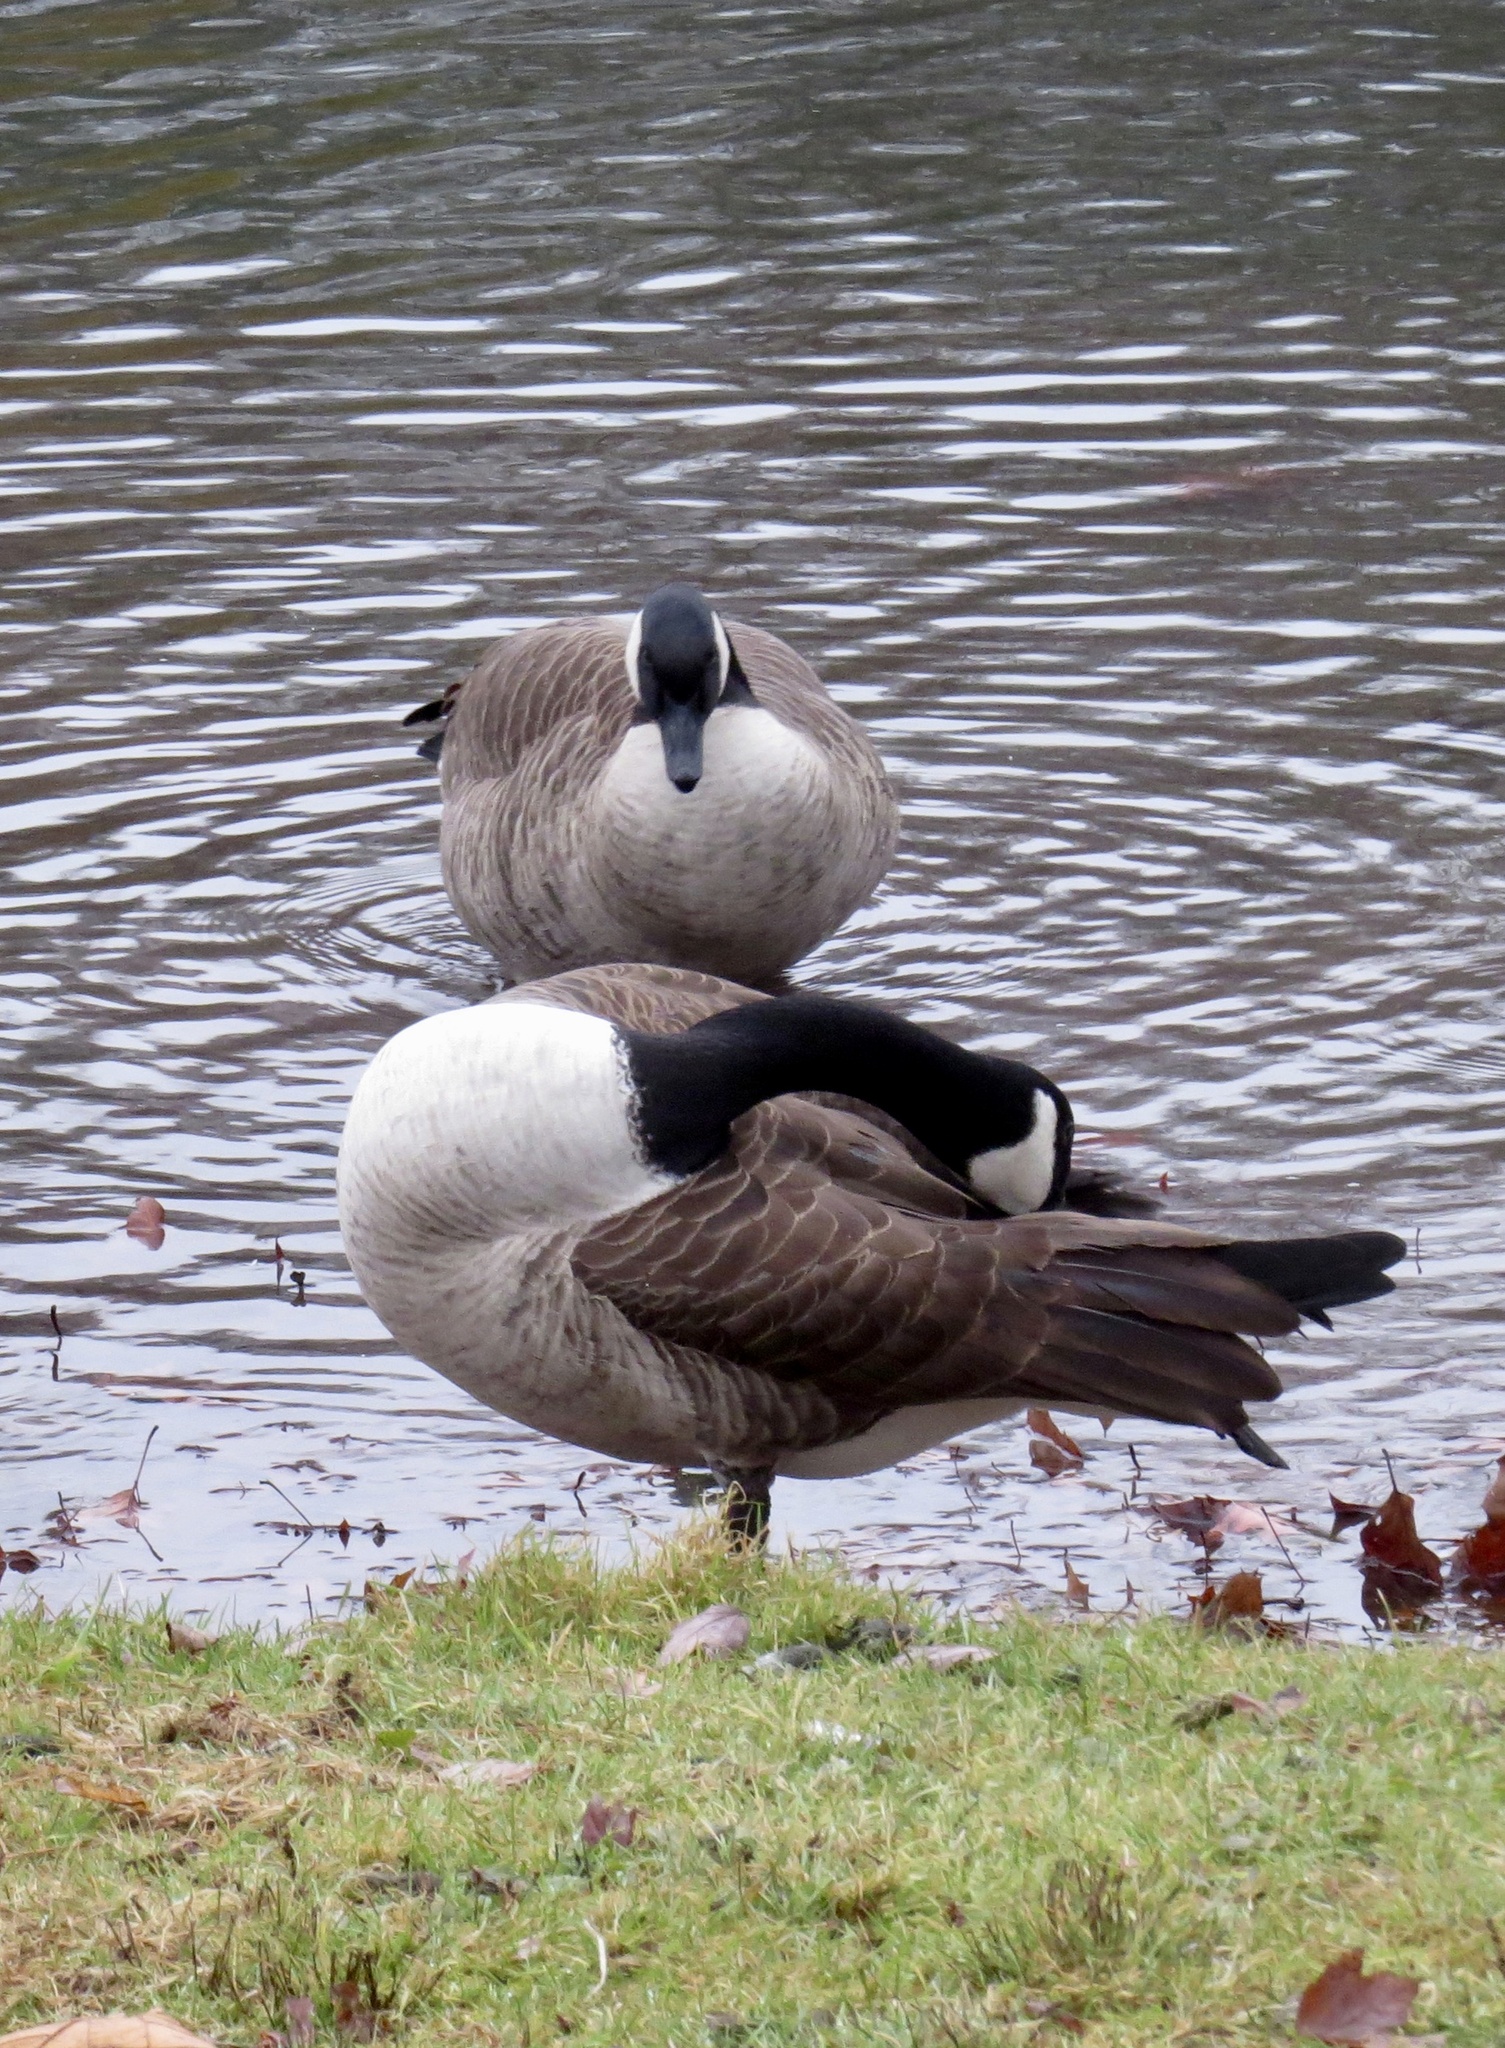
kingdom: Animalia
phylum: Chordata
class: Aves
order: Anseriformes
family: Anatidae
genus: Branta
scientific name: Branta canadensis
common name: Canada goose
